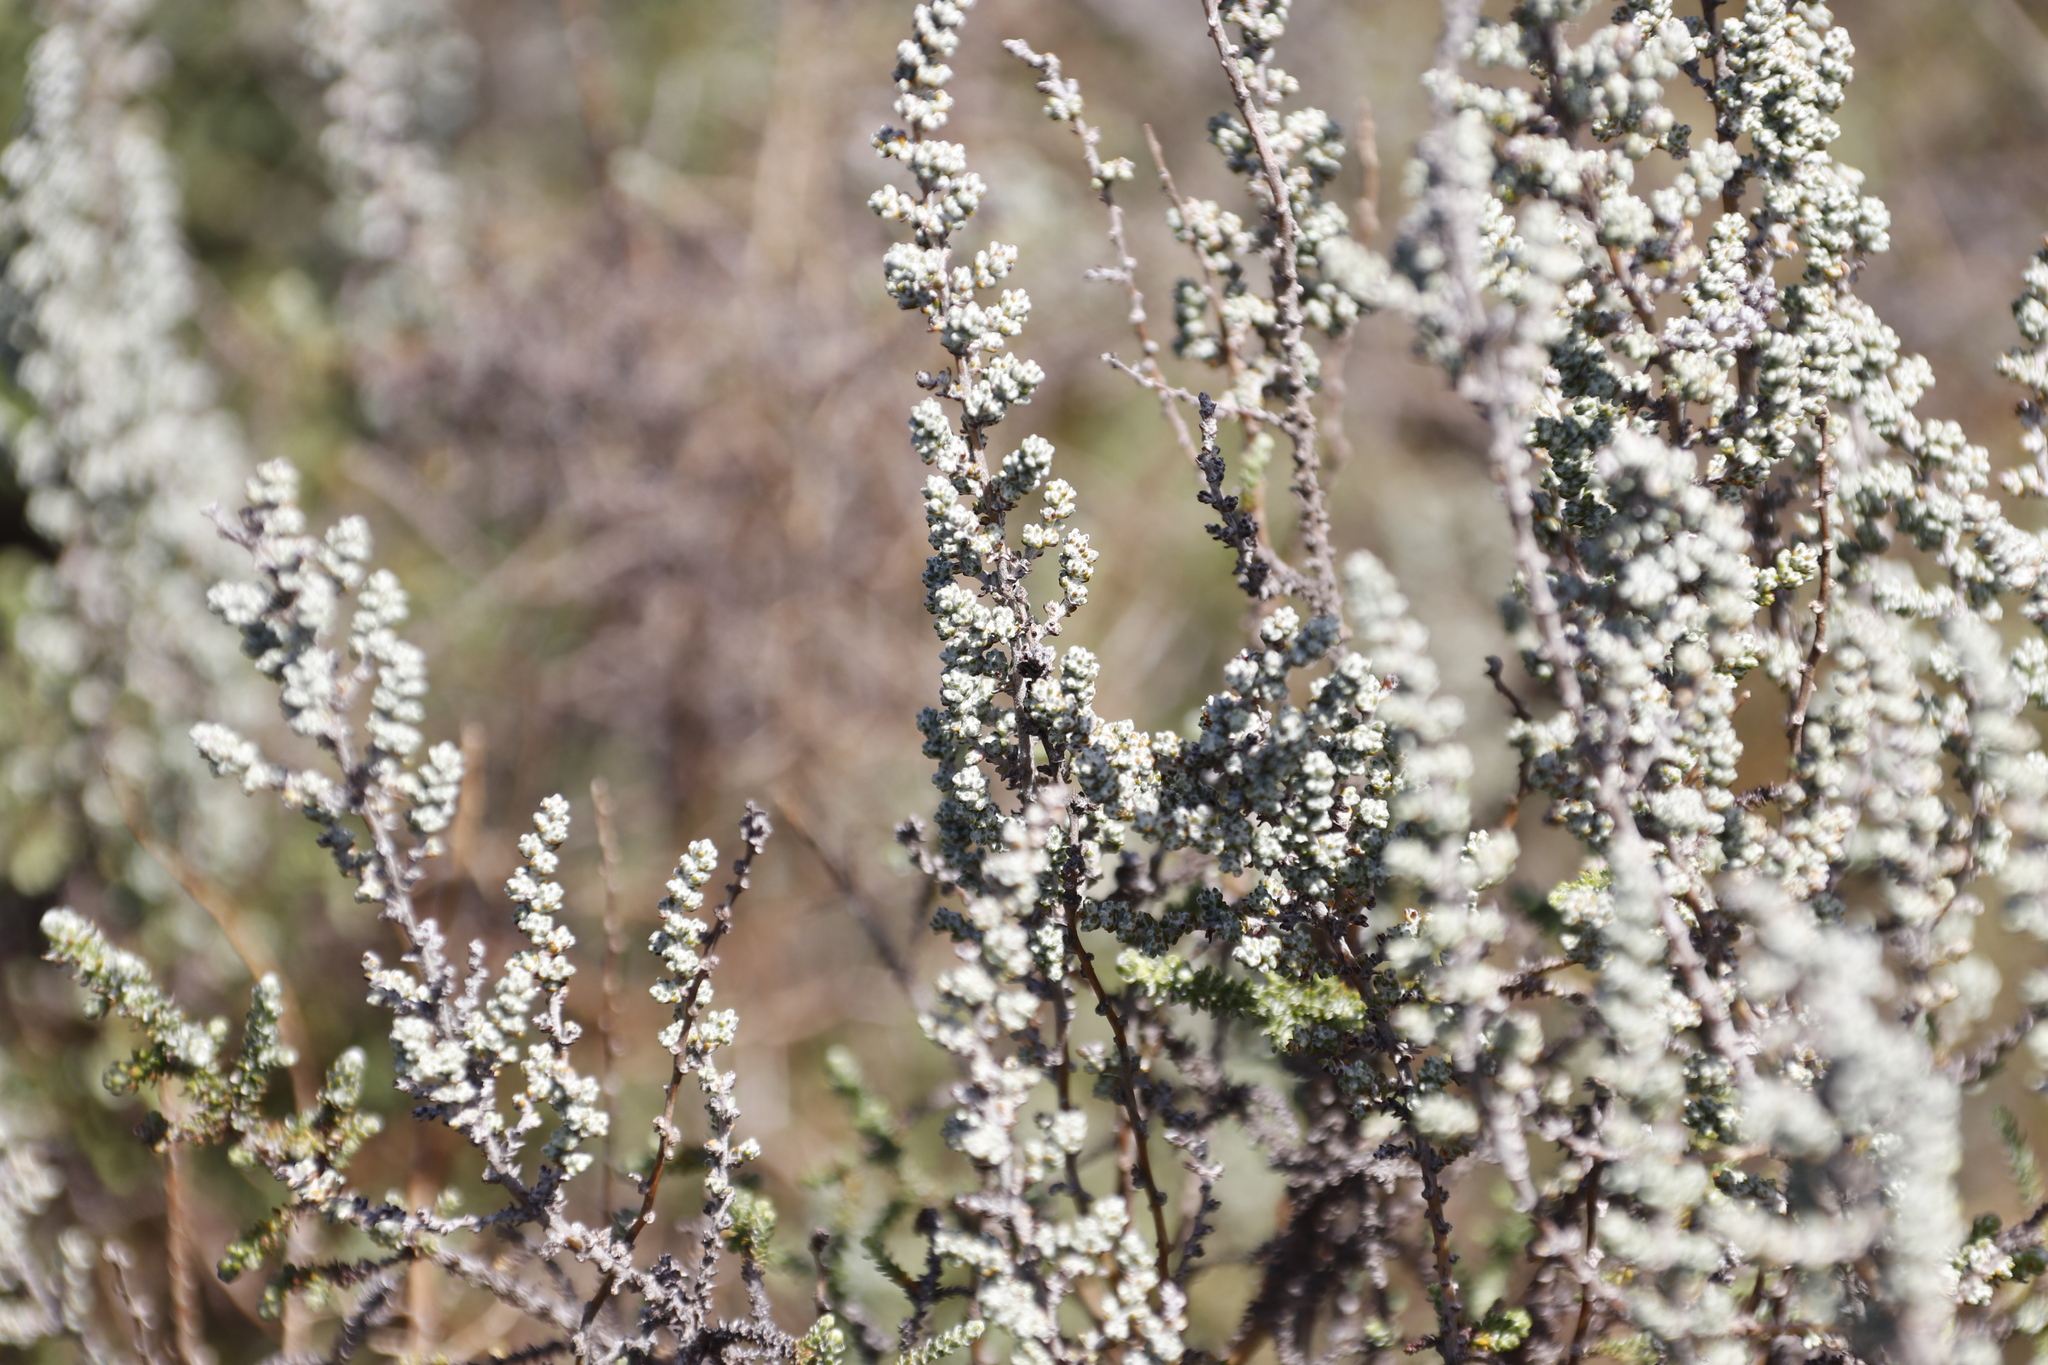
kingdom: Plantae
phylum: Tracheophyta
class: Magnoliopsida
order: Asterales
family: Asteraceae
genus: Seriphium
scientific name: Seriphium plumosum
